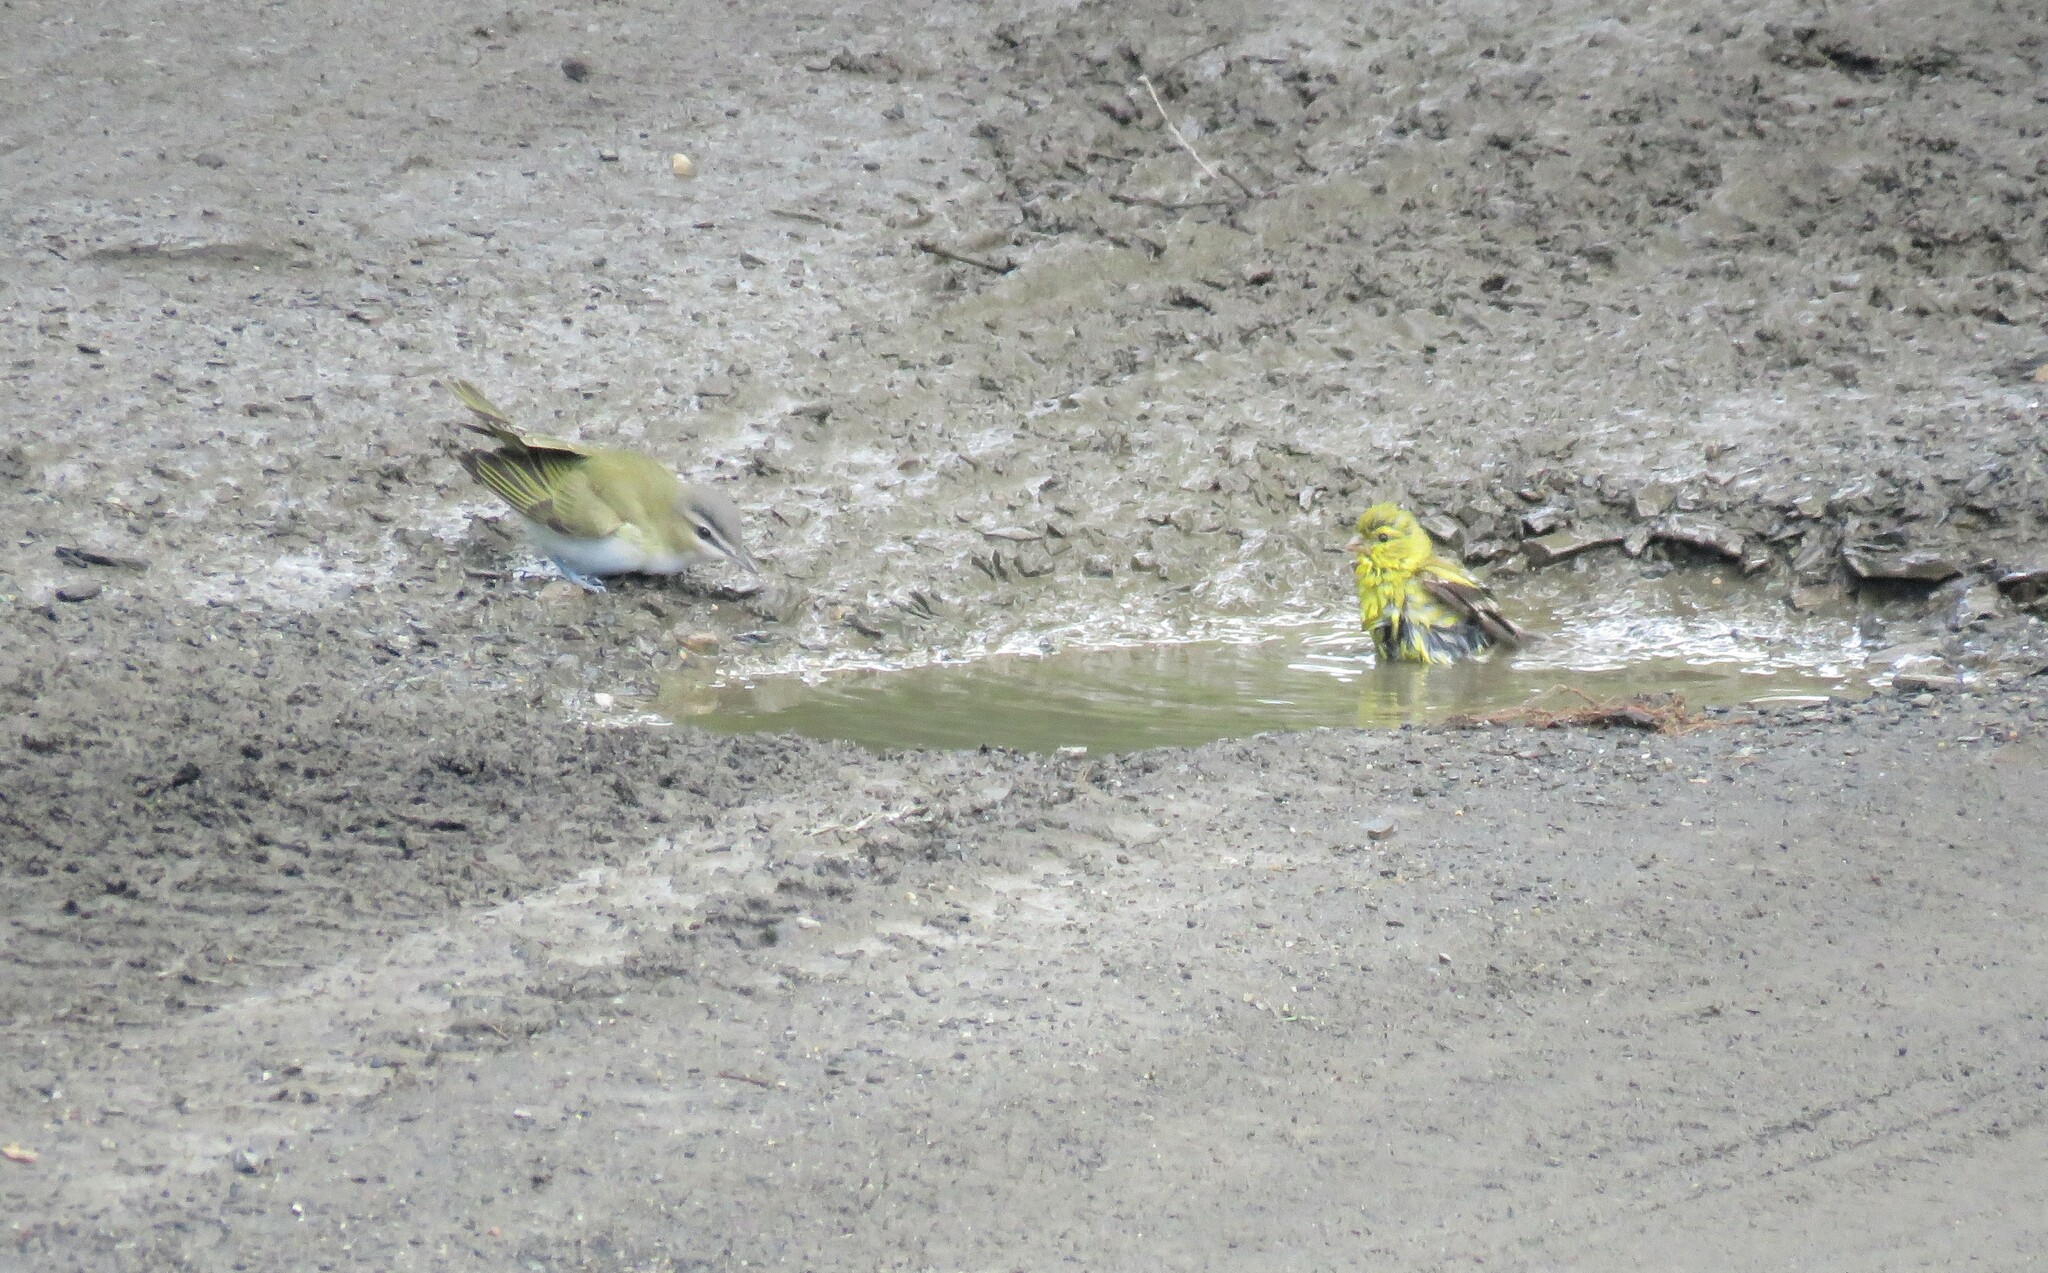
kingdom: Animalia
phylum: Chordata
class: Aves
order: Passeriformes
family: Vireonidae
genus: Vireo
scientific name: Vireo olivaceus
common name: Red-eyed vireo
